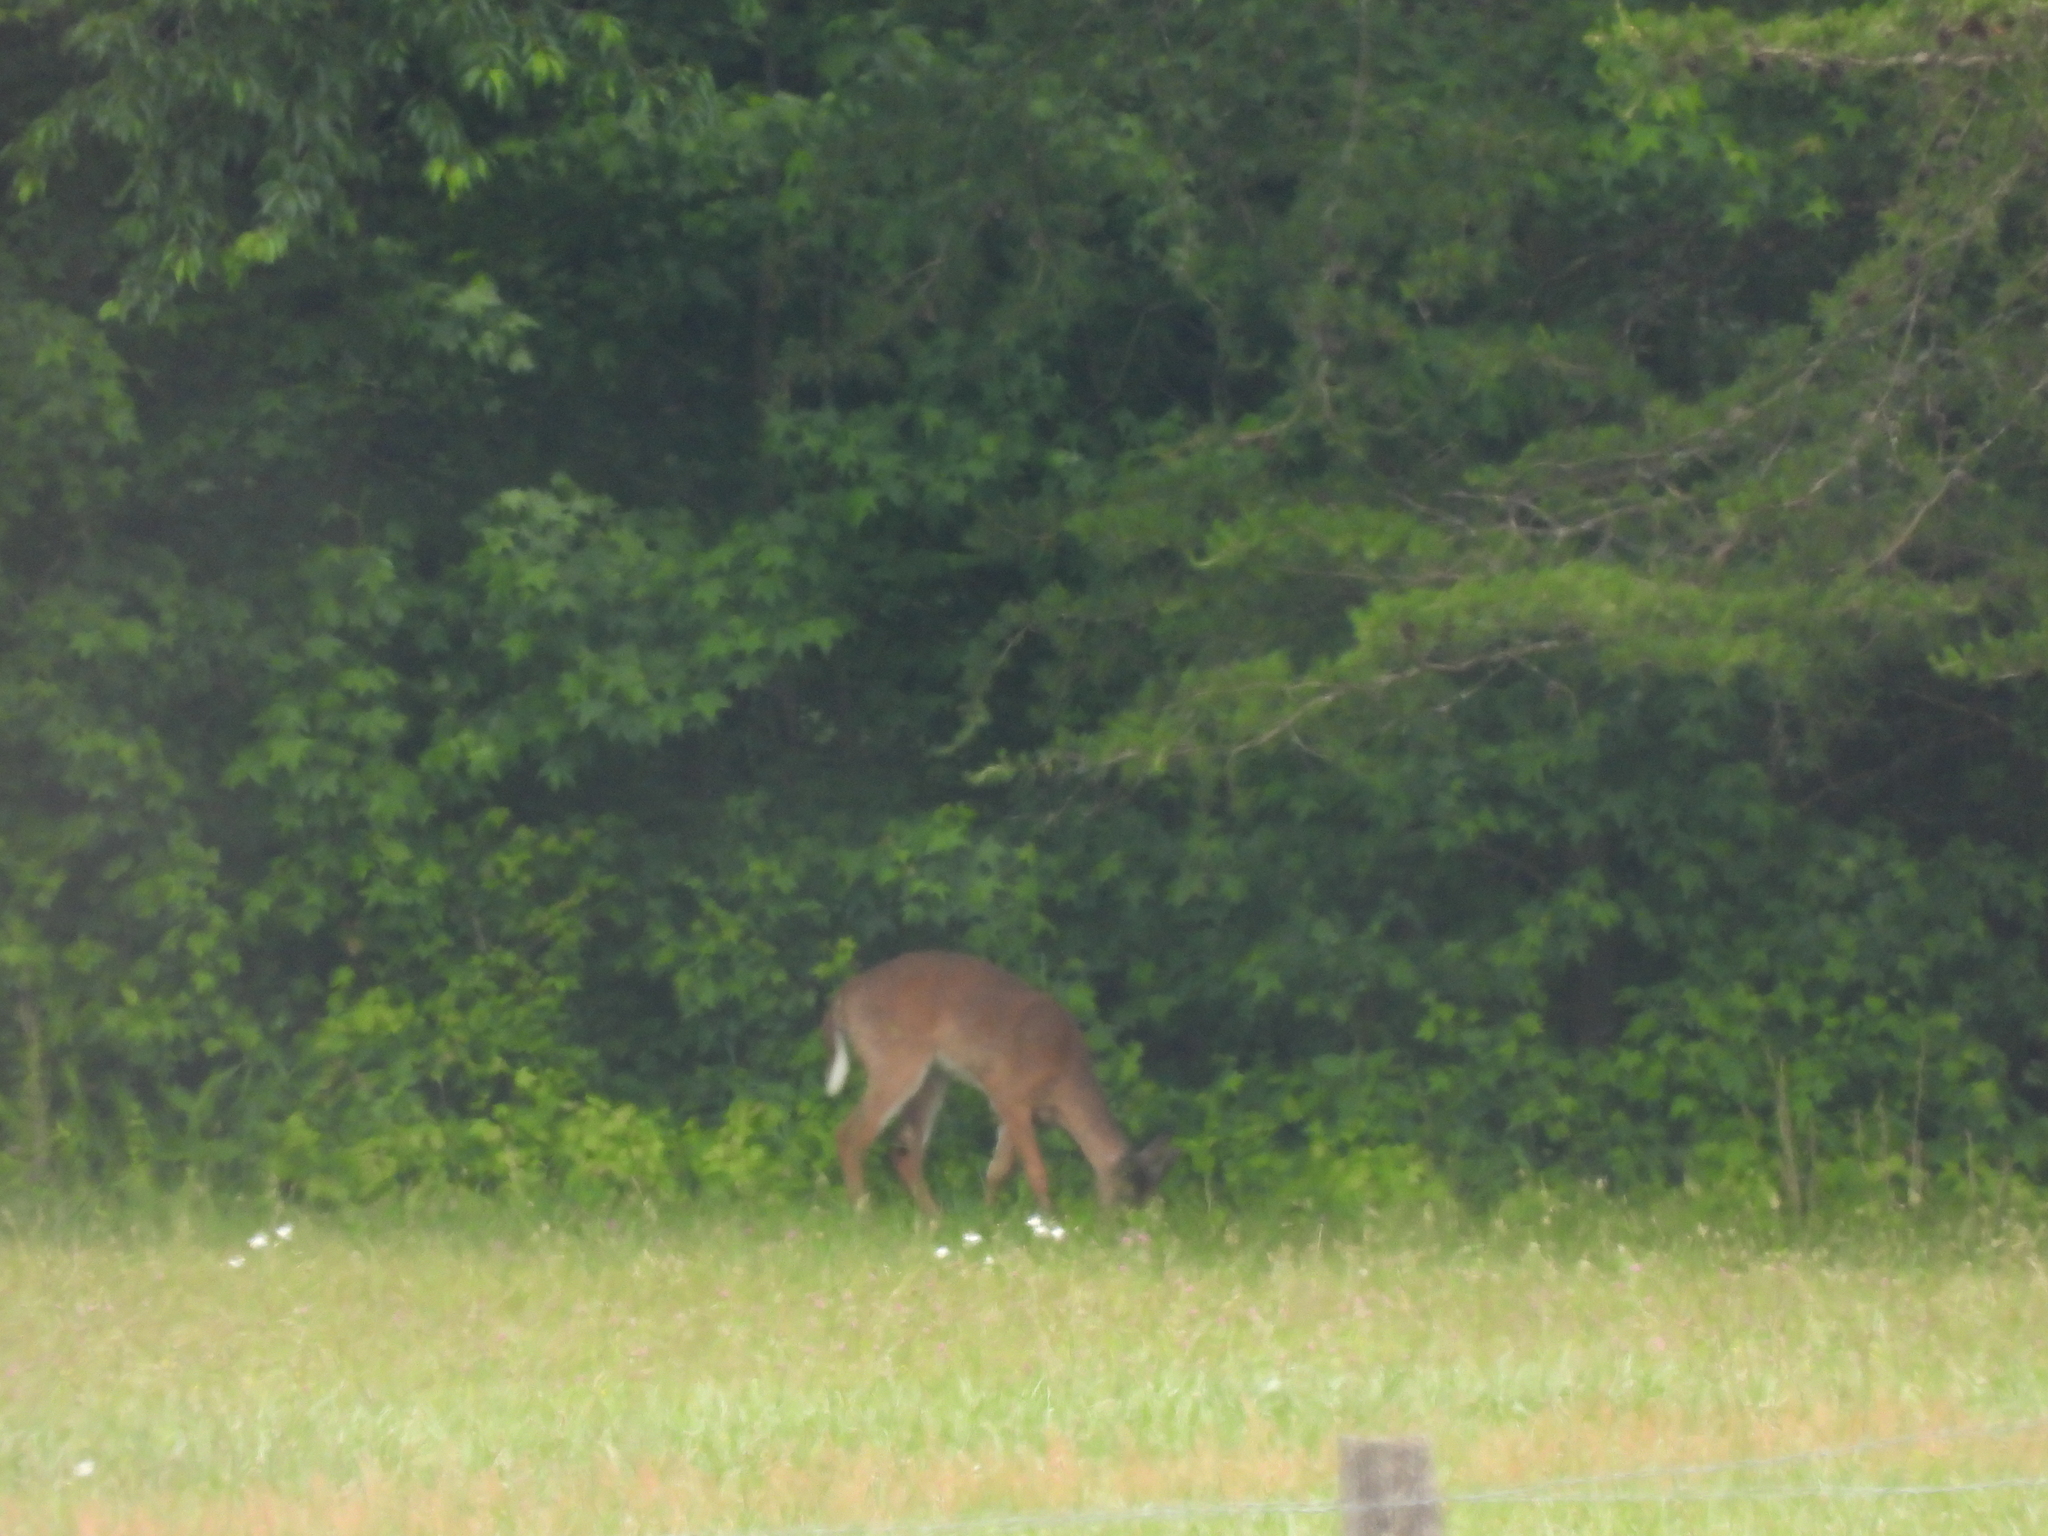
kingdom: Animalia
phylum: Chordata
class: Mammalia
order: Artiodactyla
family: Cervidae
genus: Odocoileus
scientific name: Odocoileus virginianus
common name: White-tailed deer
